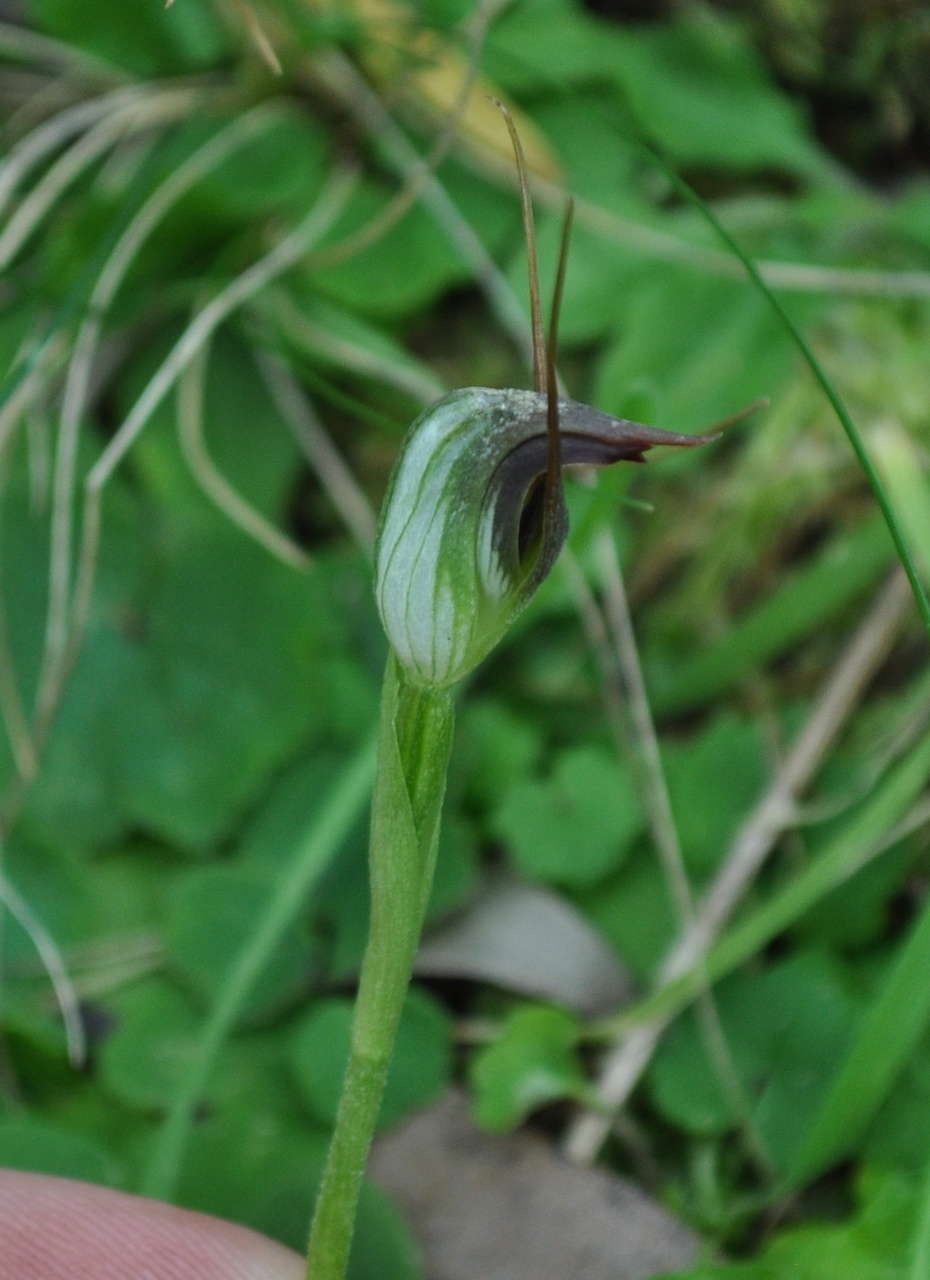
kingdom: Plantae
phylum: Tracheophyta
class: Liliopsida
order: Asparagales
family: Orchidaceae
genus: Pterostylis
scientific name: Pterostylis pedunculata
